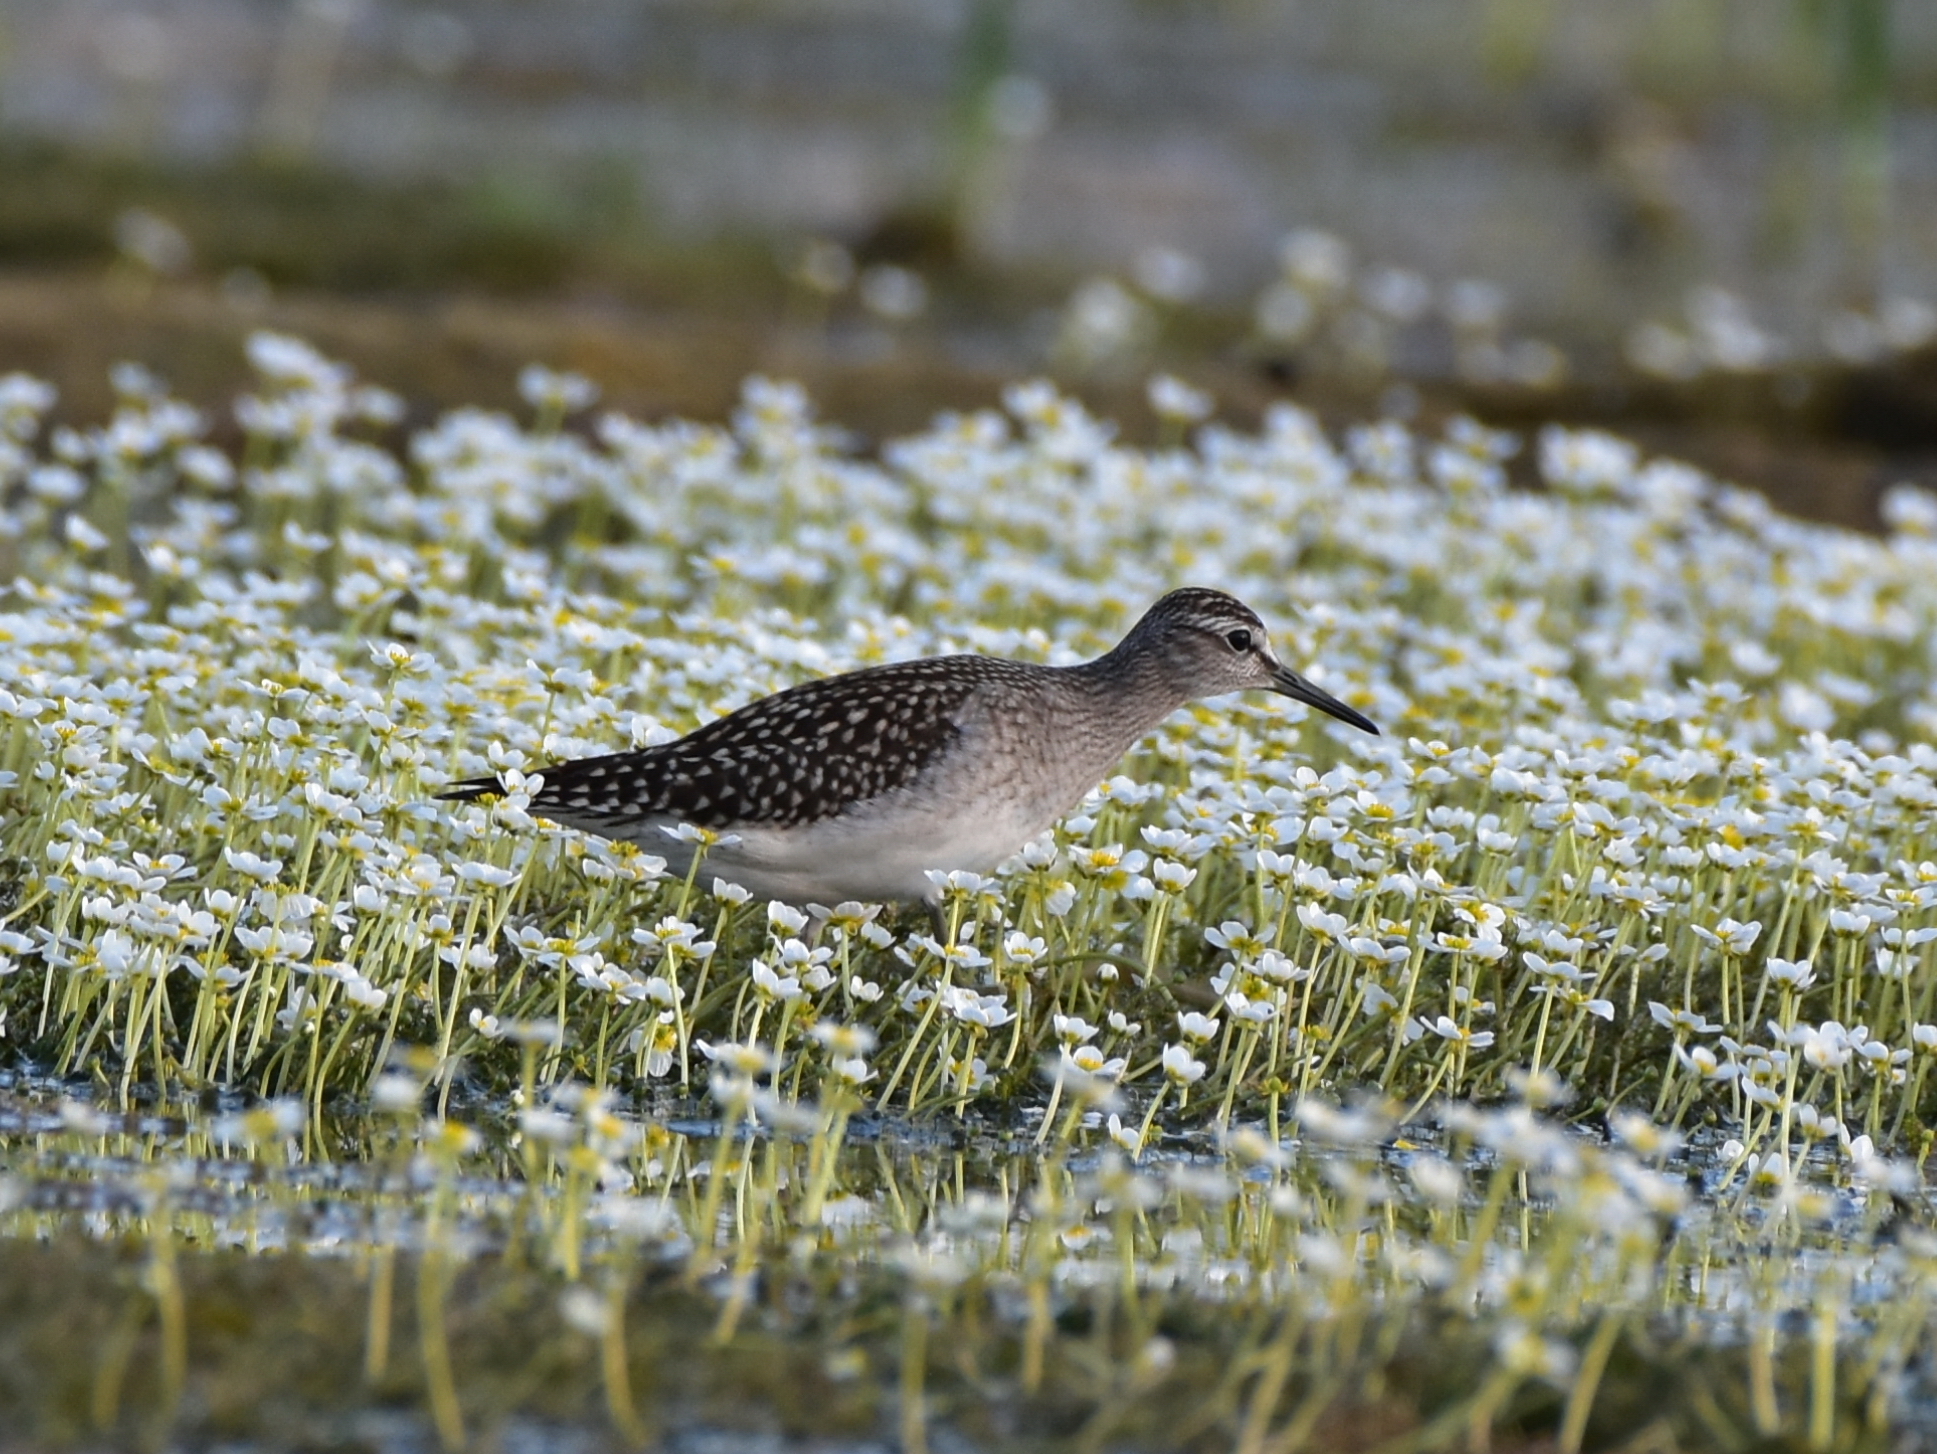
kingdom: Animalia
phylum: Chordata
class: Aves
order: Charadriiformes
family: Scolopacidae
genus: Tringa
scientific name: Tringa glareola
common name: Wood sandpiper
